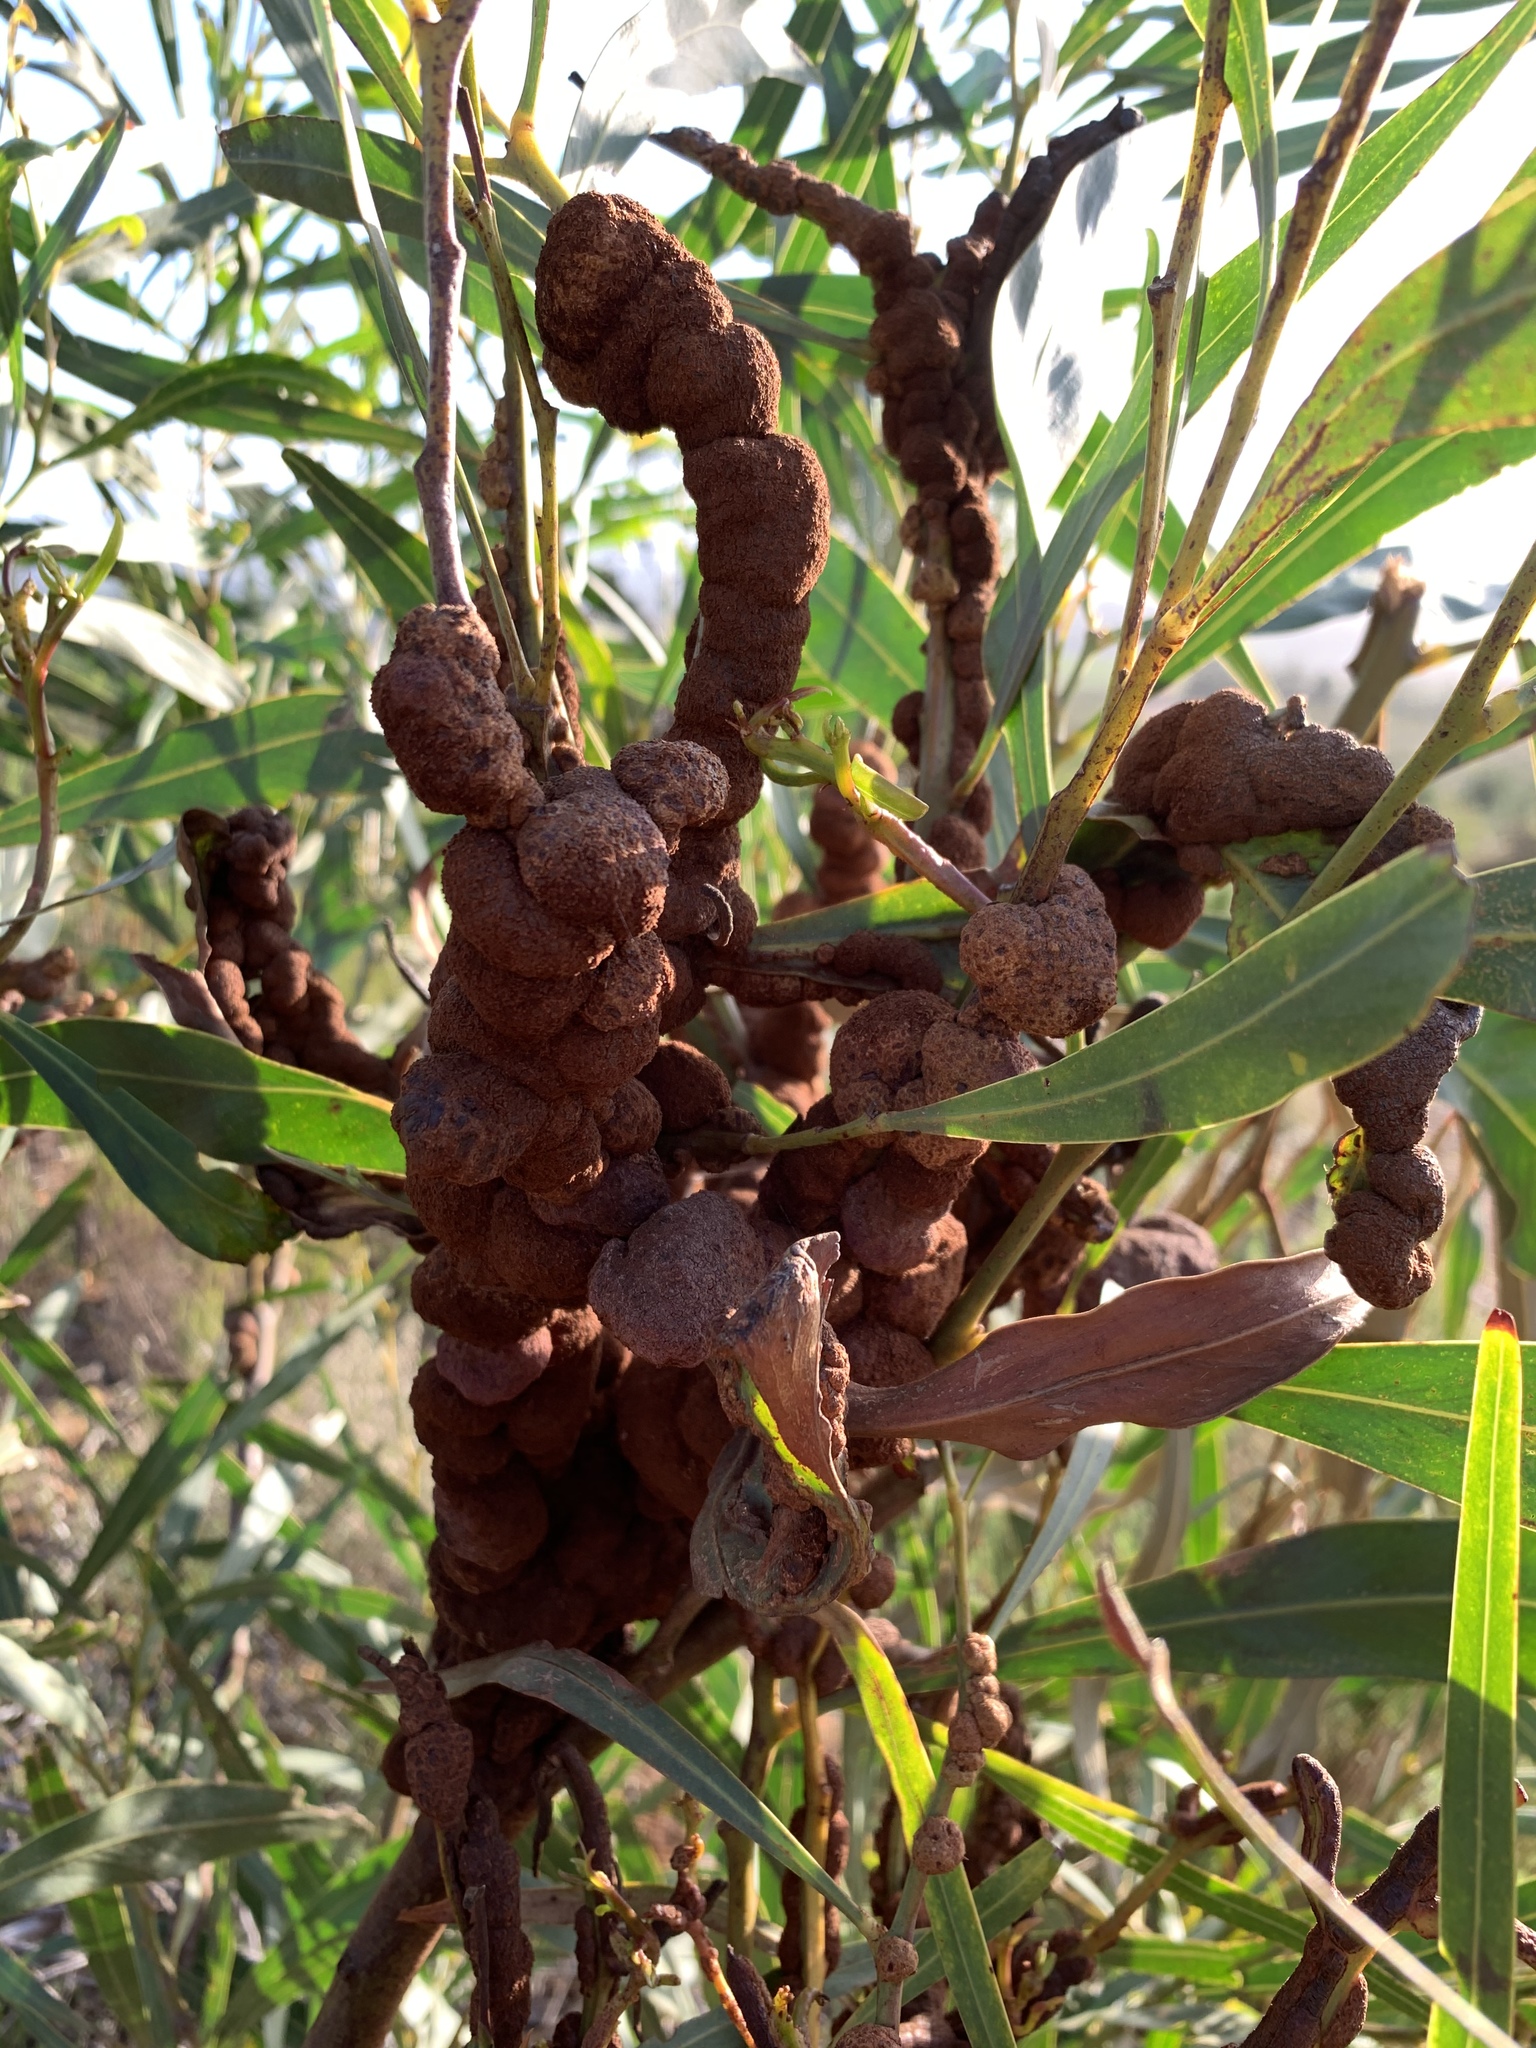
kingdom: Fungi
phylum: Basidiomycota
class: Pucciniomycetes
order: Pucciniales
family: Uromycladiaceae
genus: Uromycladium
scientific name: Uromycladium morrisii
